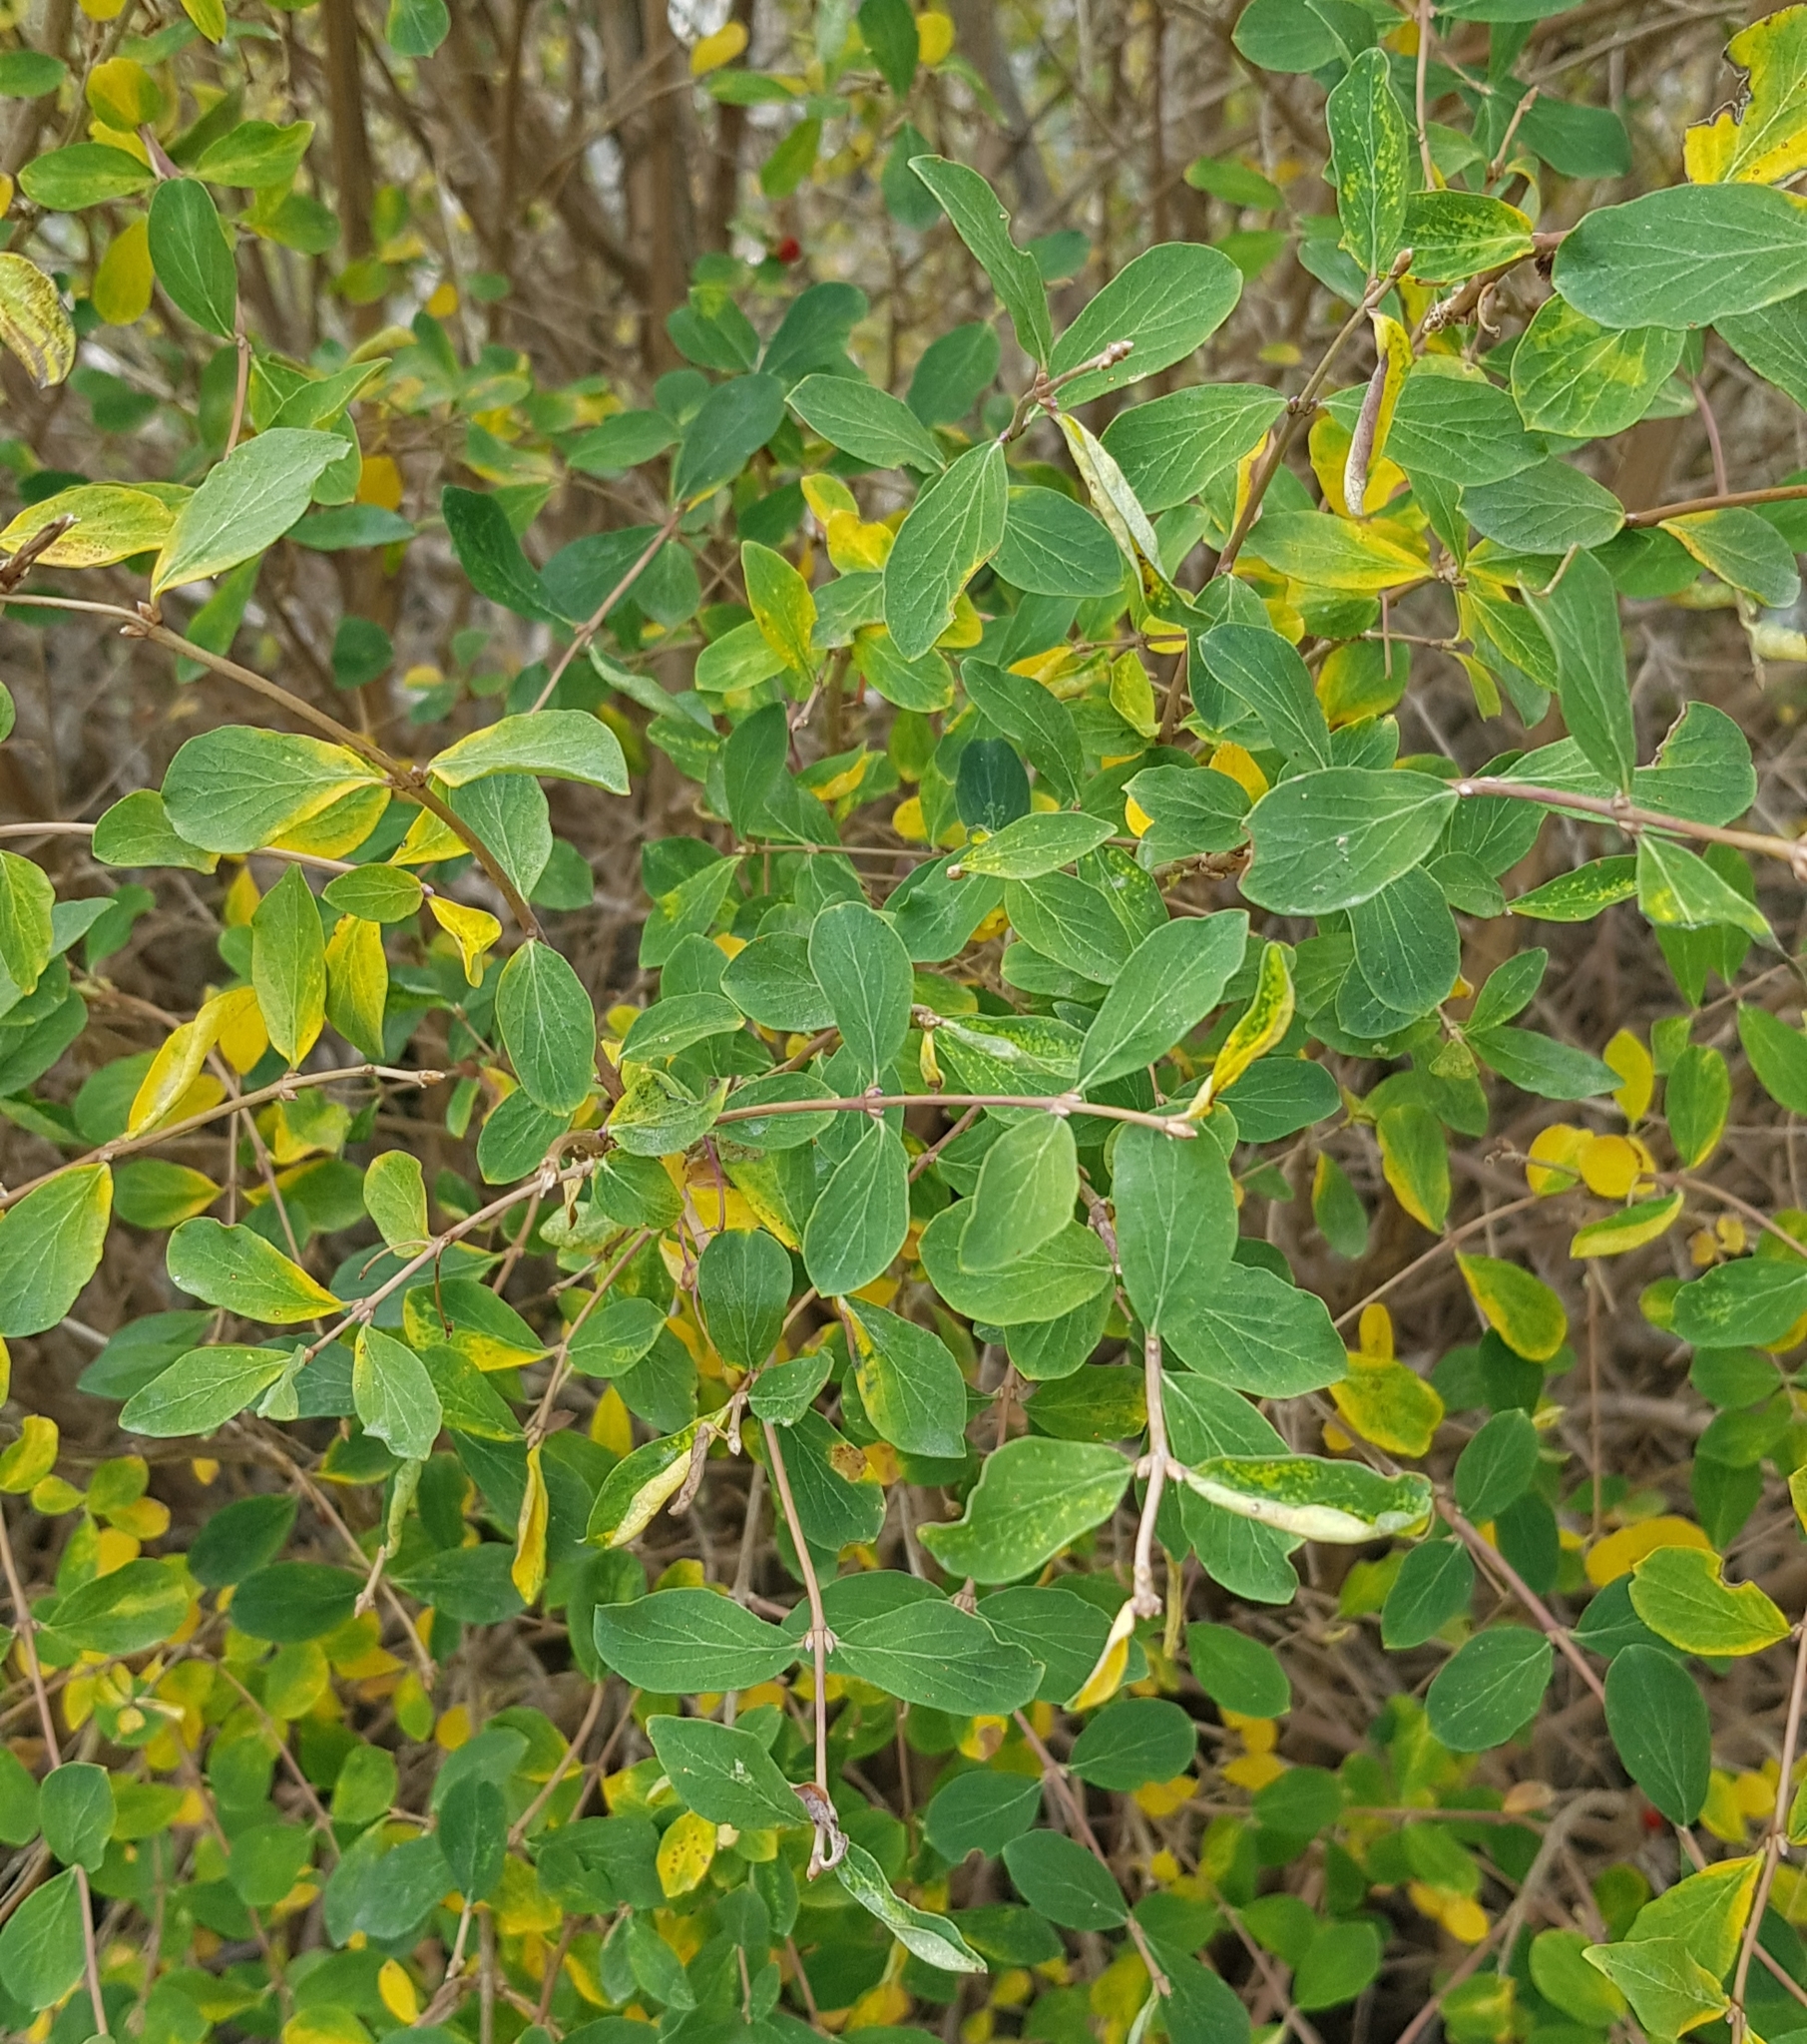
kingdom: Plantae
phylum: Tracheophyta
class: Magnoliopsida
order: Dipsacales
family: Caprifoliaceae
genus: Lonicera
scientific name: Lonicera microphylla
